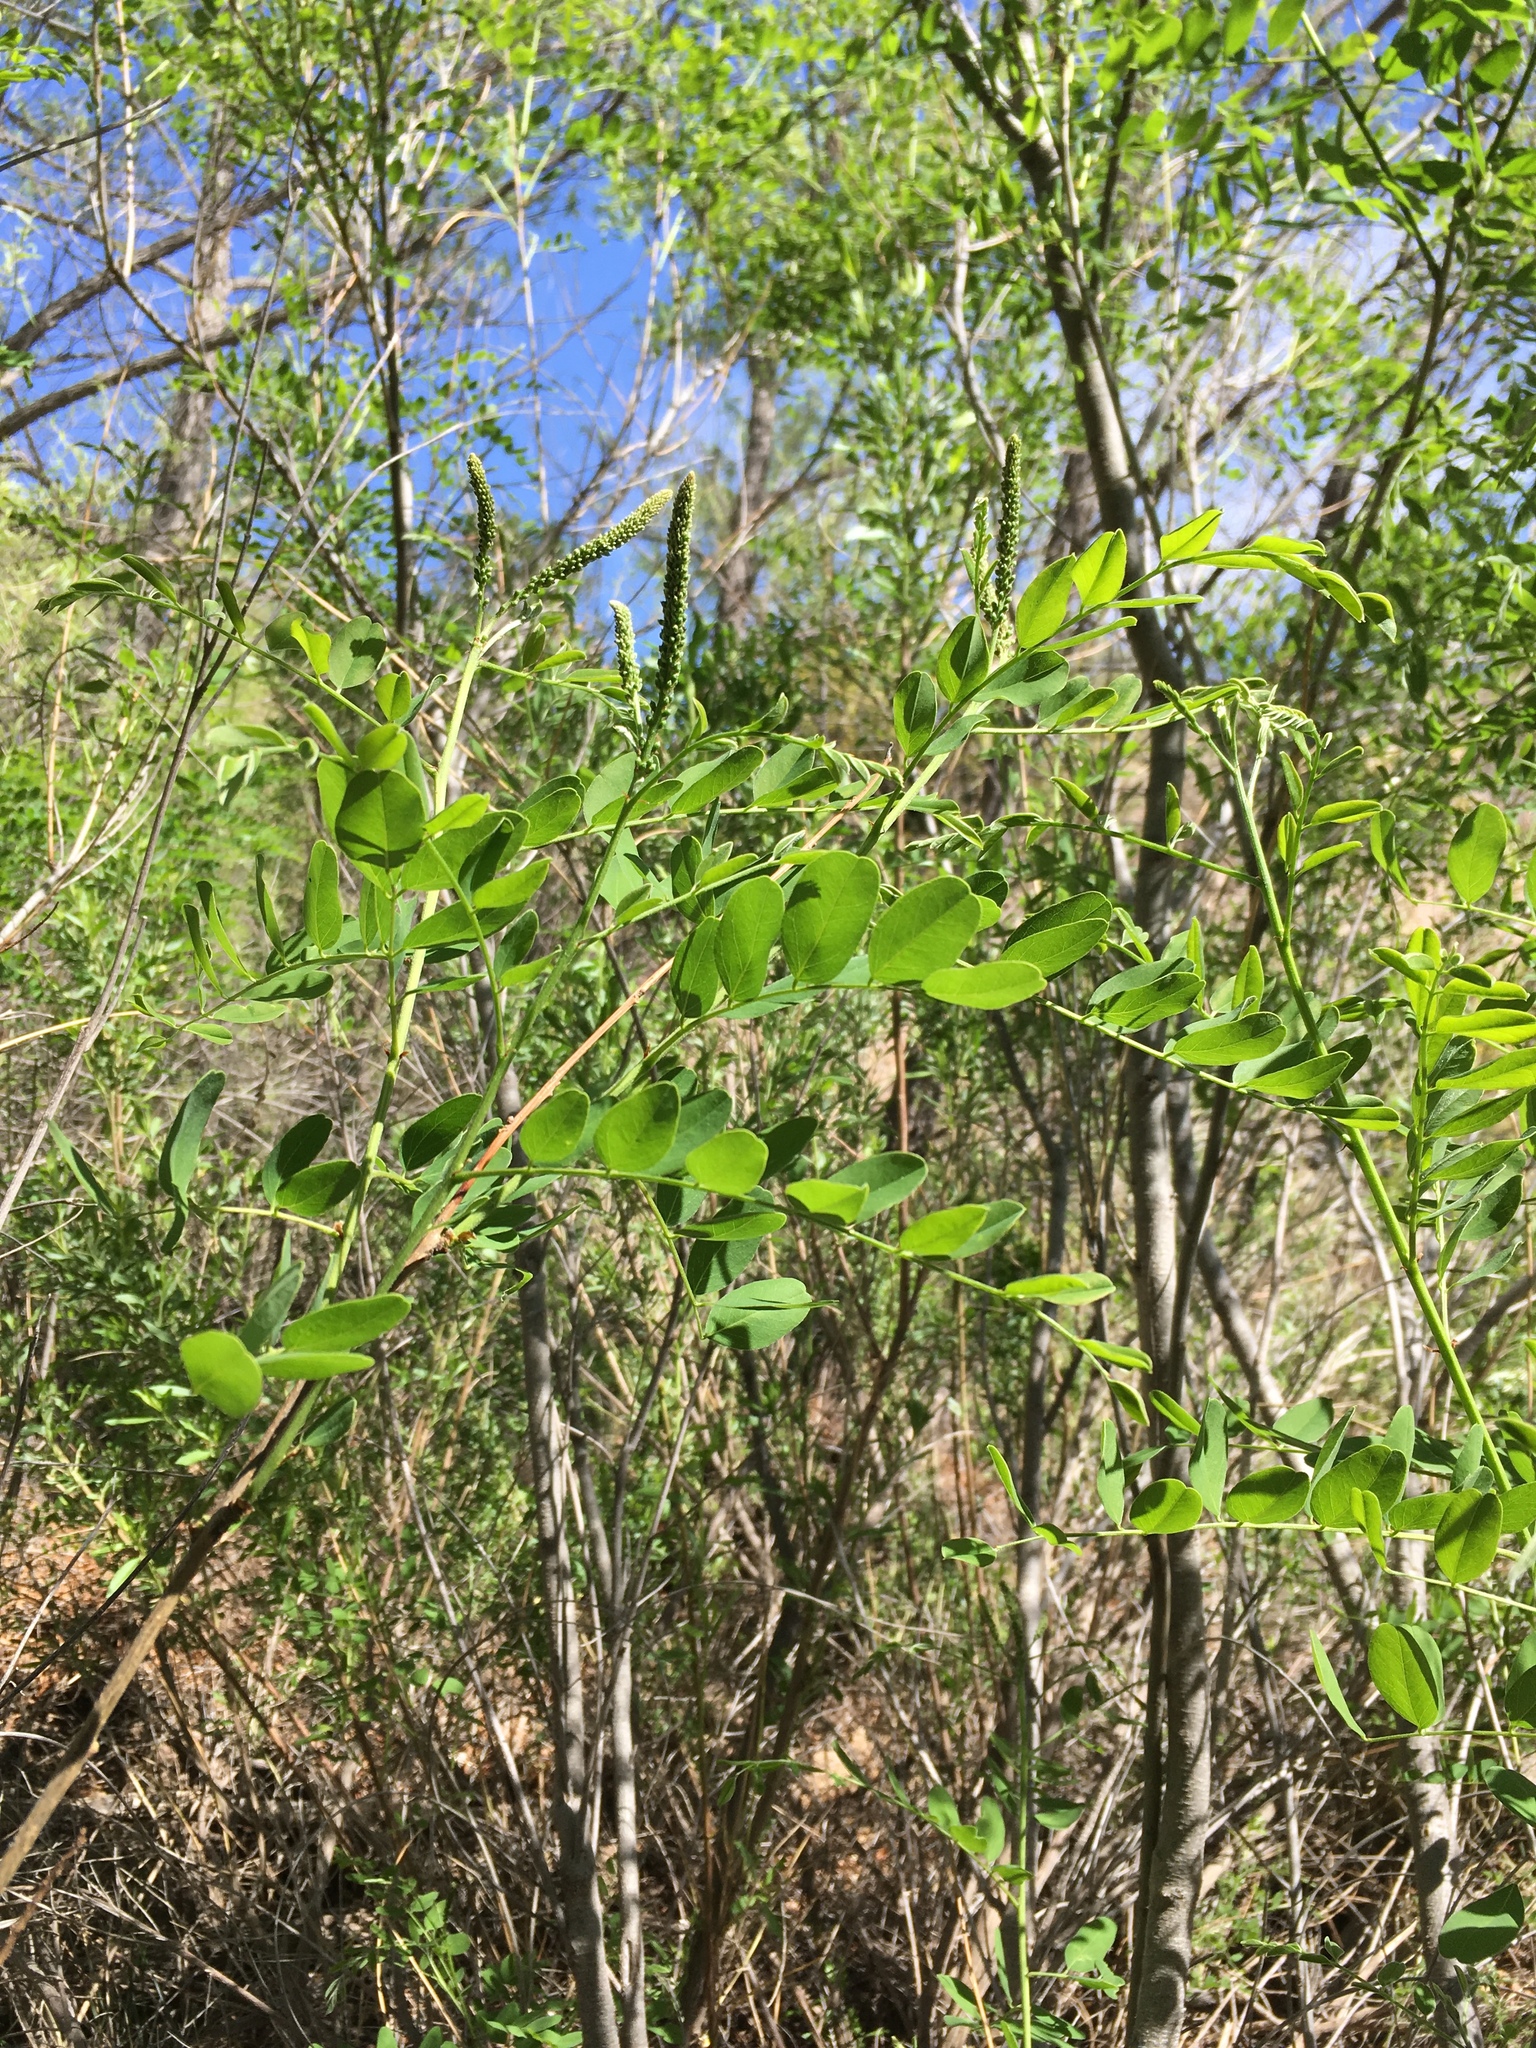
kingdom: Plantae
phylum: Tracheophyta
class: Magnoliopsida
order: Fabales
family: Fabaceae
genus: Amorpha
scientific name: Amorpha fruticosa
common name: False indigo
